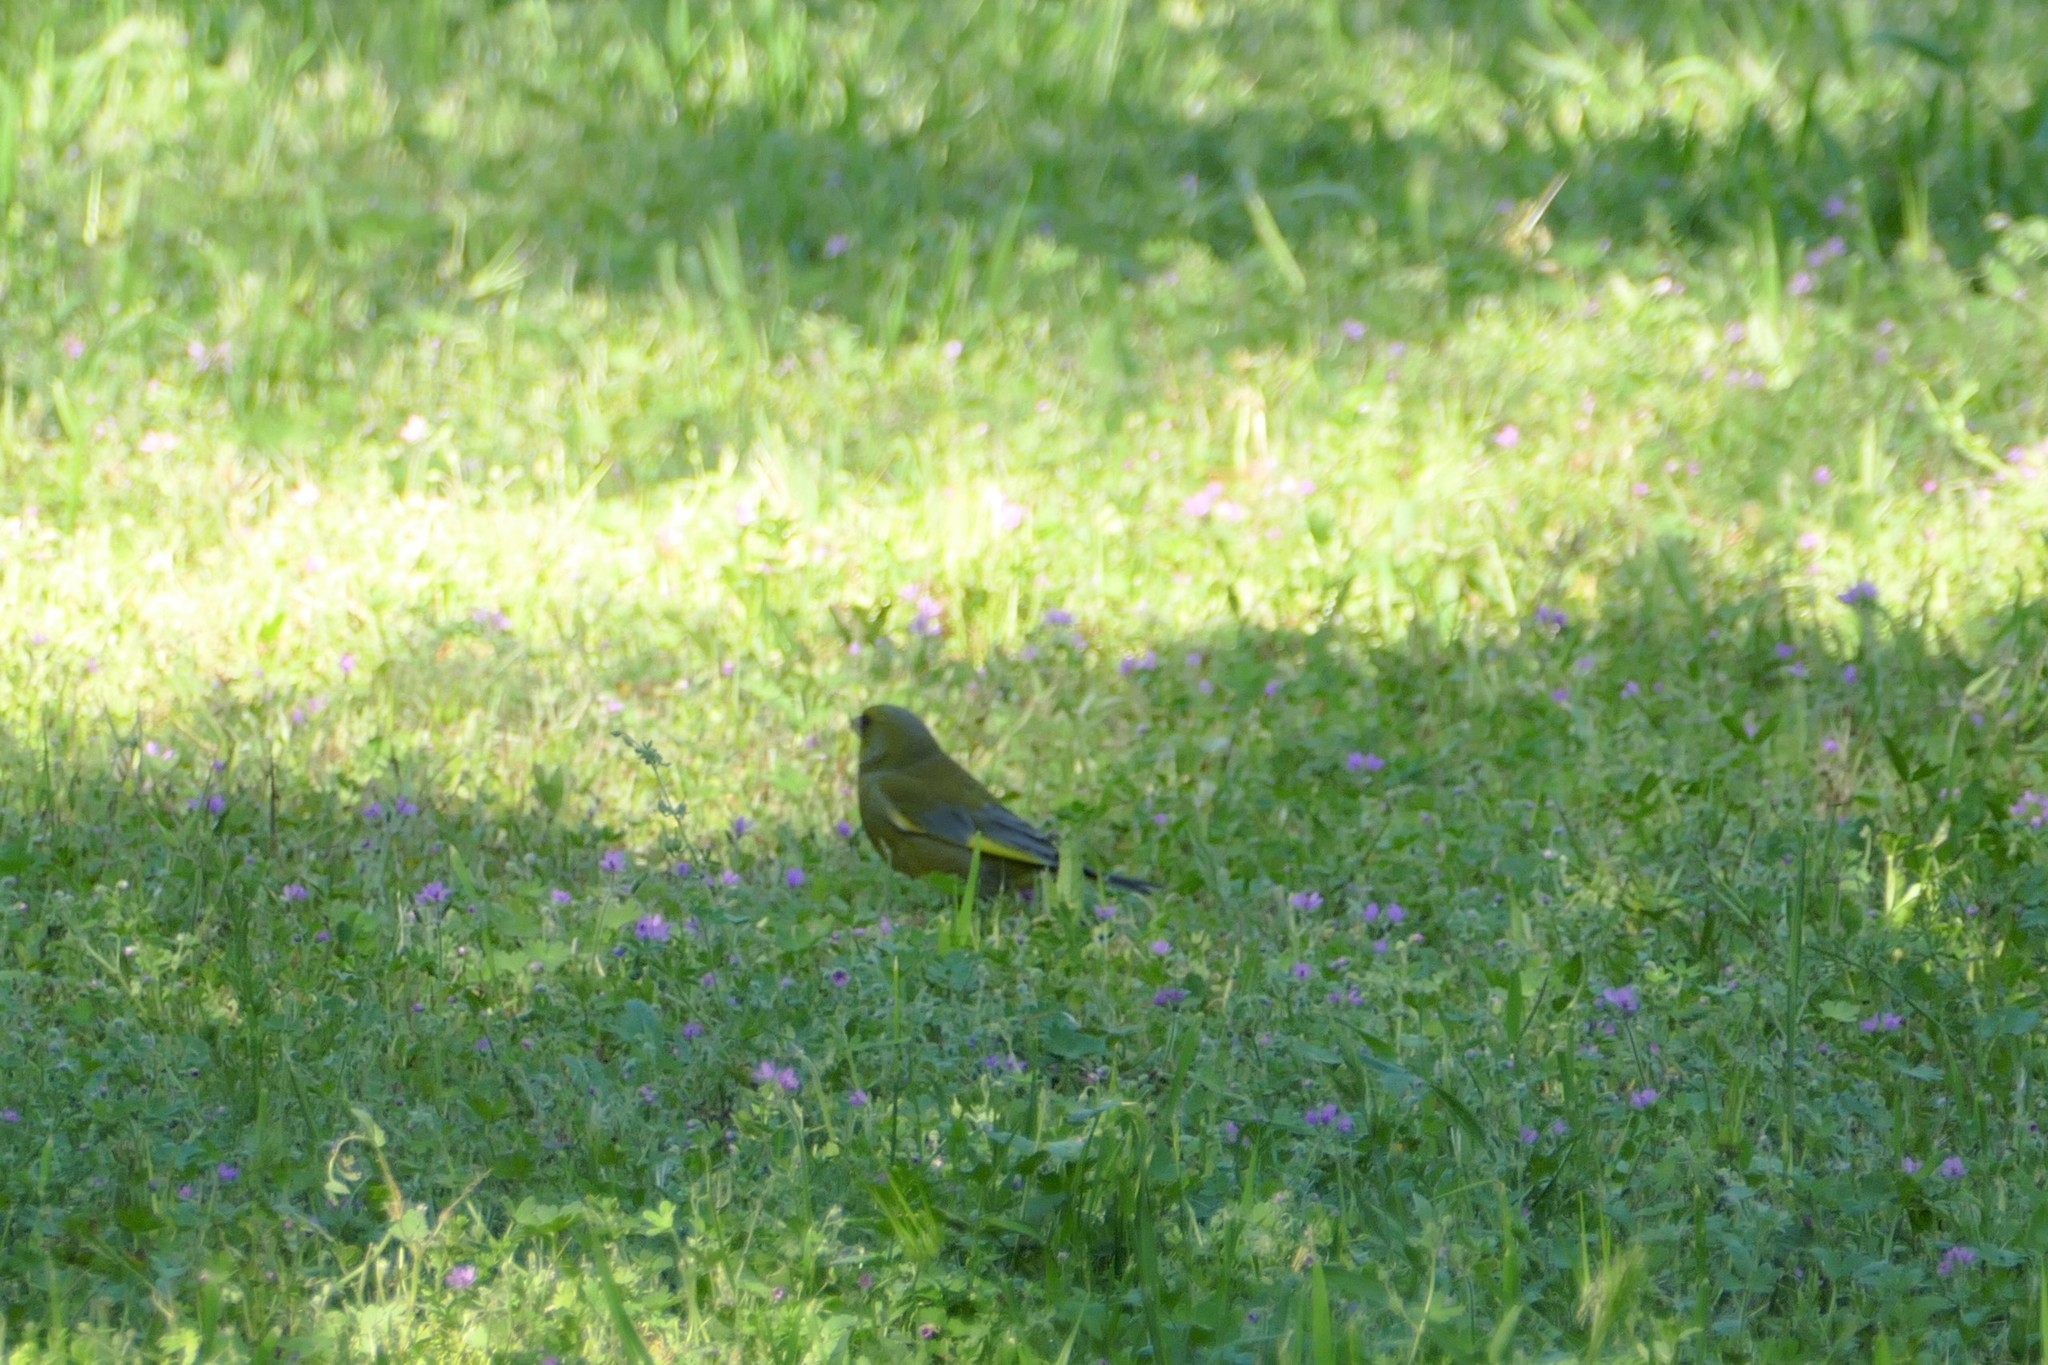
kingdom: Plantae
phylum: Tracheophyta
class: Liliopsida
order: Poales
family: Poaceae
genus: Chloris
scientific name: Chloris chloris
